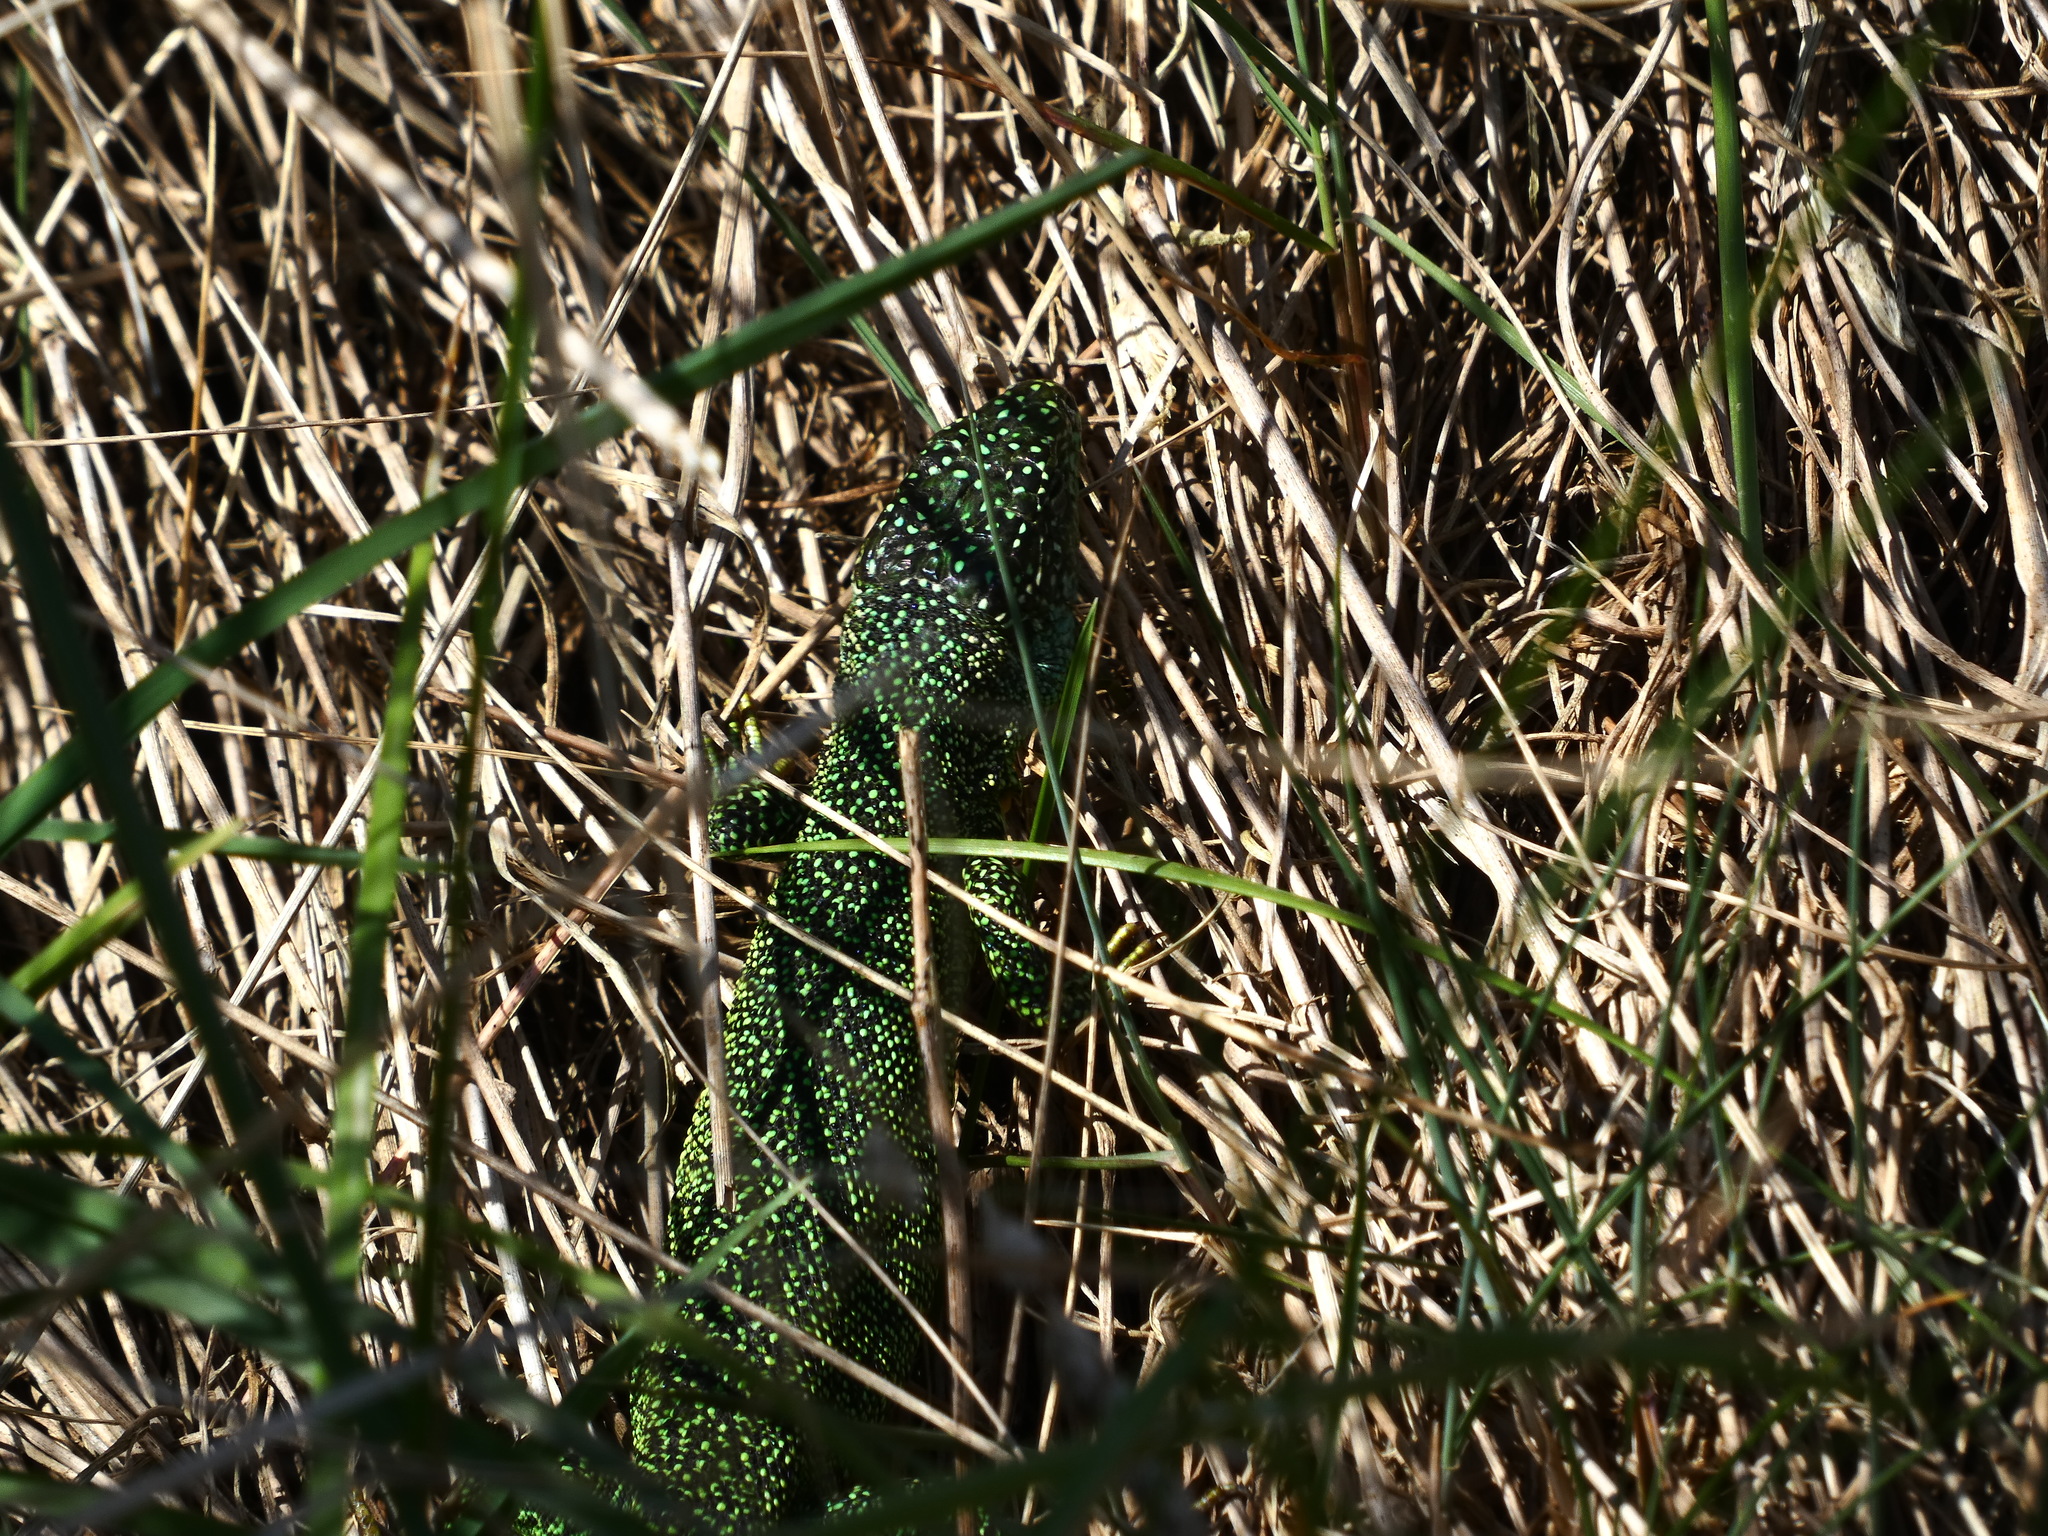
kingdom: Animalia
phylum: Chordata
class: Squamata
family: Lacertidae
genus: Lacerta
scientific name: Lacerta bilineata
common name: Western green lizard
